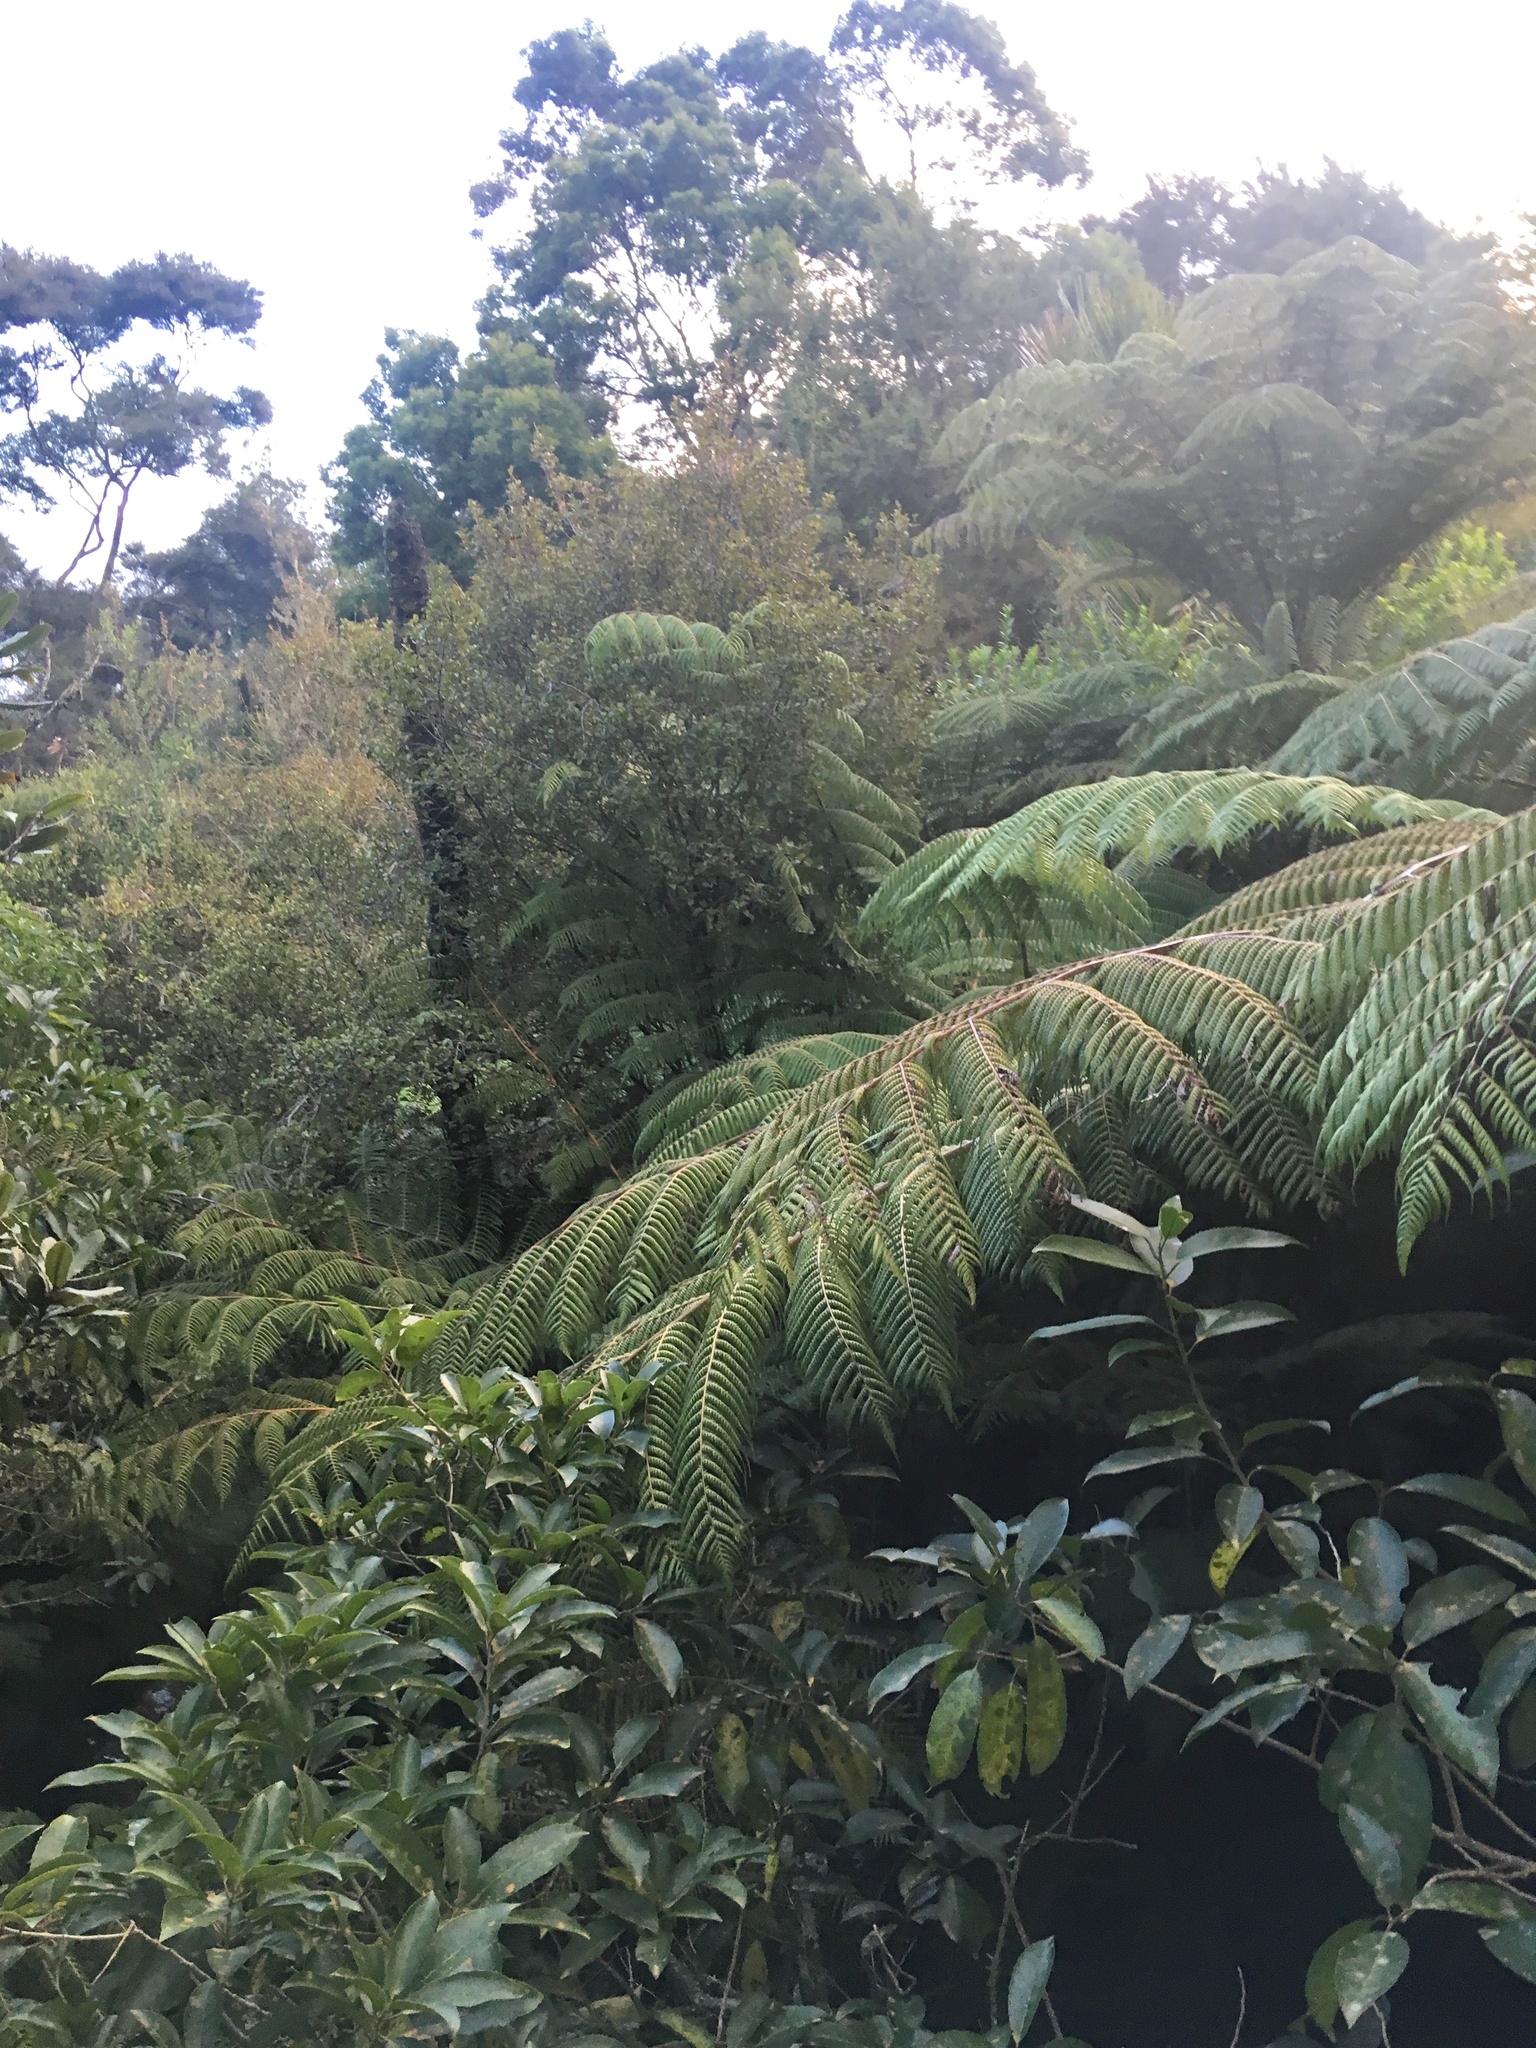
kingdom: Plantae
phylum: Tracheophyta
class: Magnoliopsida
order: Malpighiales
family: Violaceae
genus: Melicytus
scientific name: Melicytus ramiflorus
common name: Mahoe
